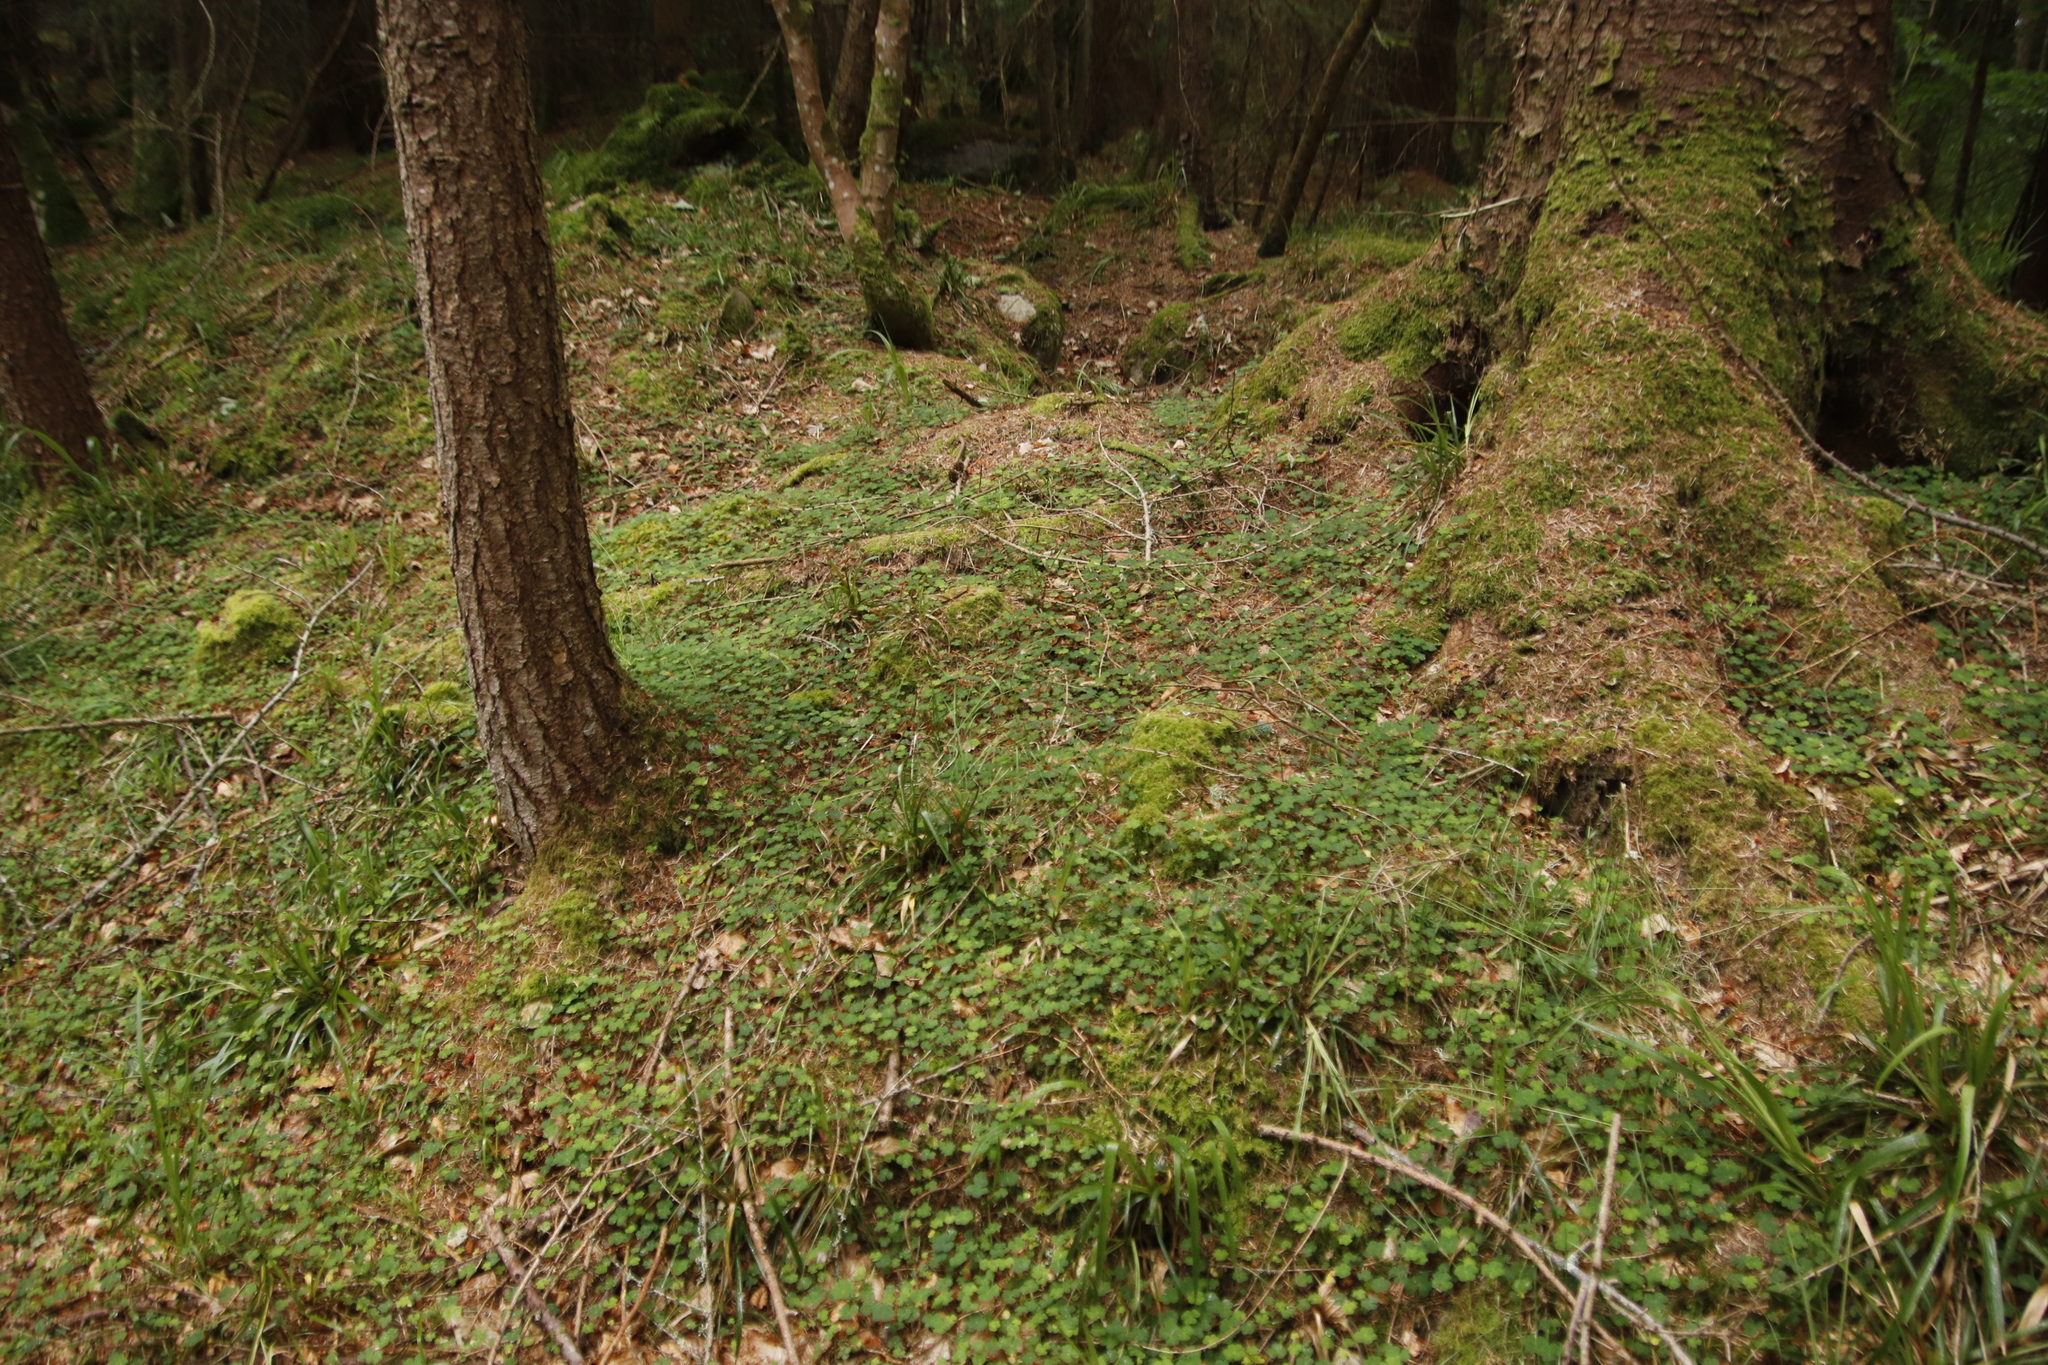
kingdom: Plantae
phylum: Tracheophyta
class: Magnoliopsida
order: Oxalidales
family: Oxalidaceae
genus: Oxalis
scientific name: Oxalis acetosella
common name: Wood-sorrel
